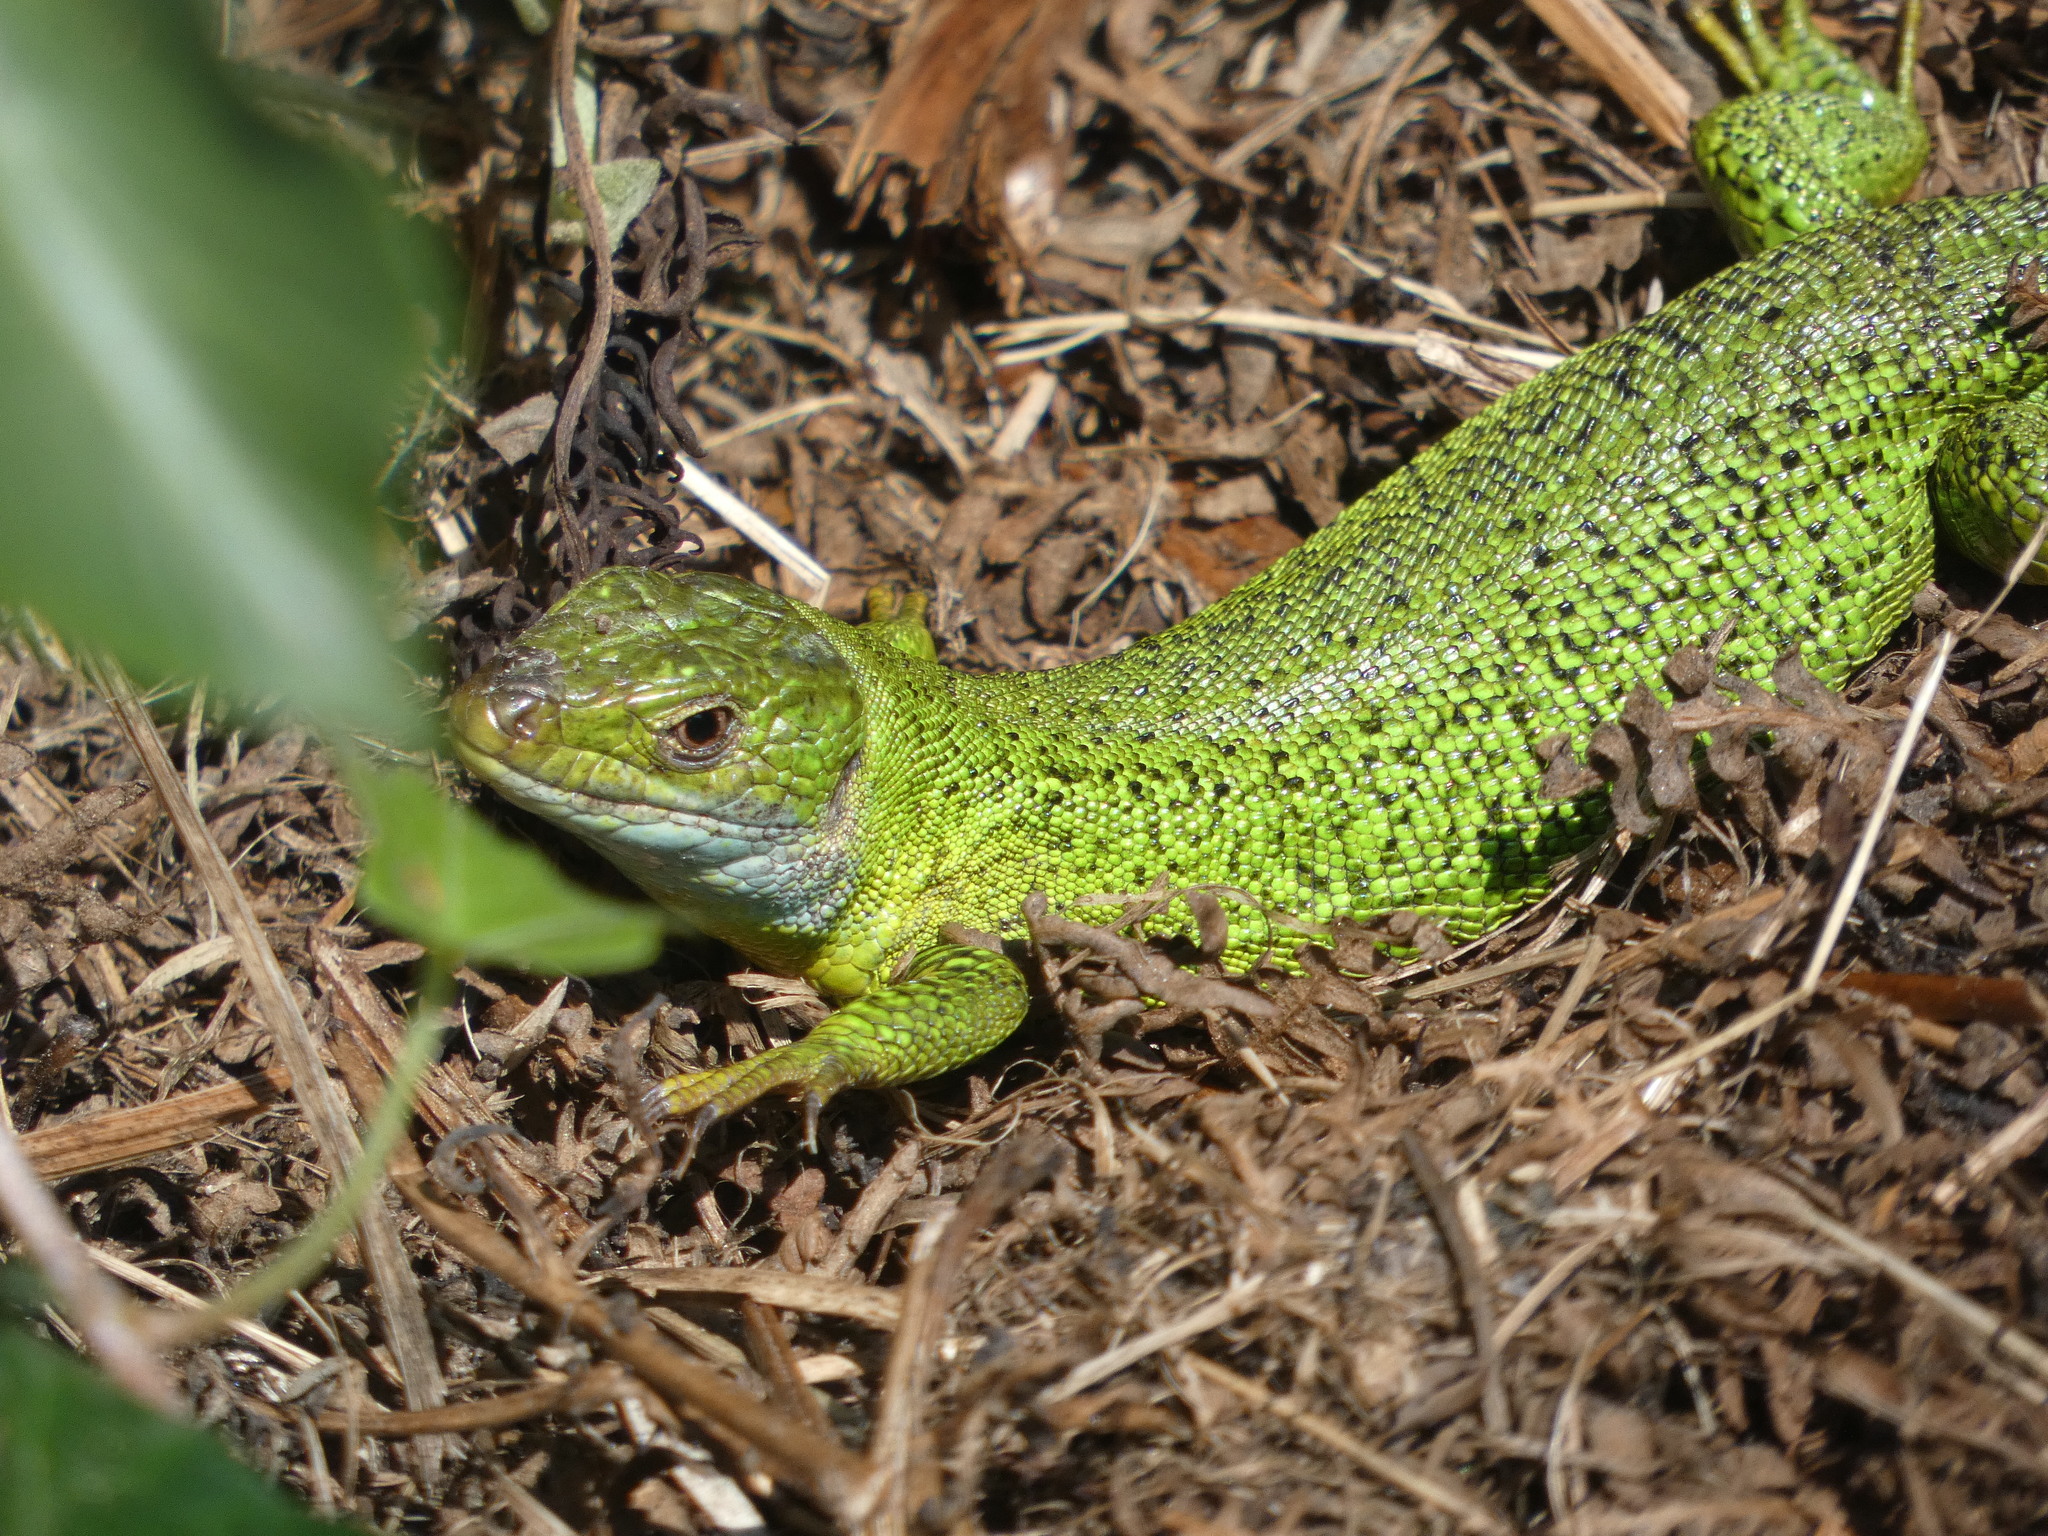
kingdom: Animalia
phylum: Chordata
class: Squamata
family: Lacertidae
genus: Lacerta
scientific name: Lacerta bilineata
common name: Western green lizard
